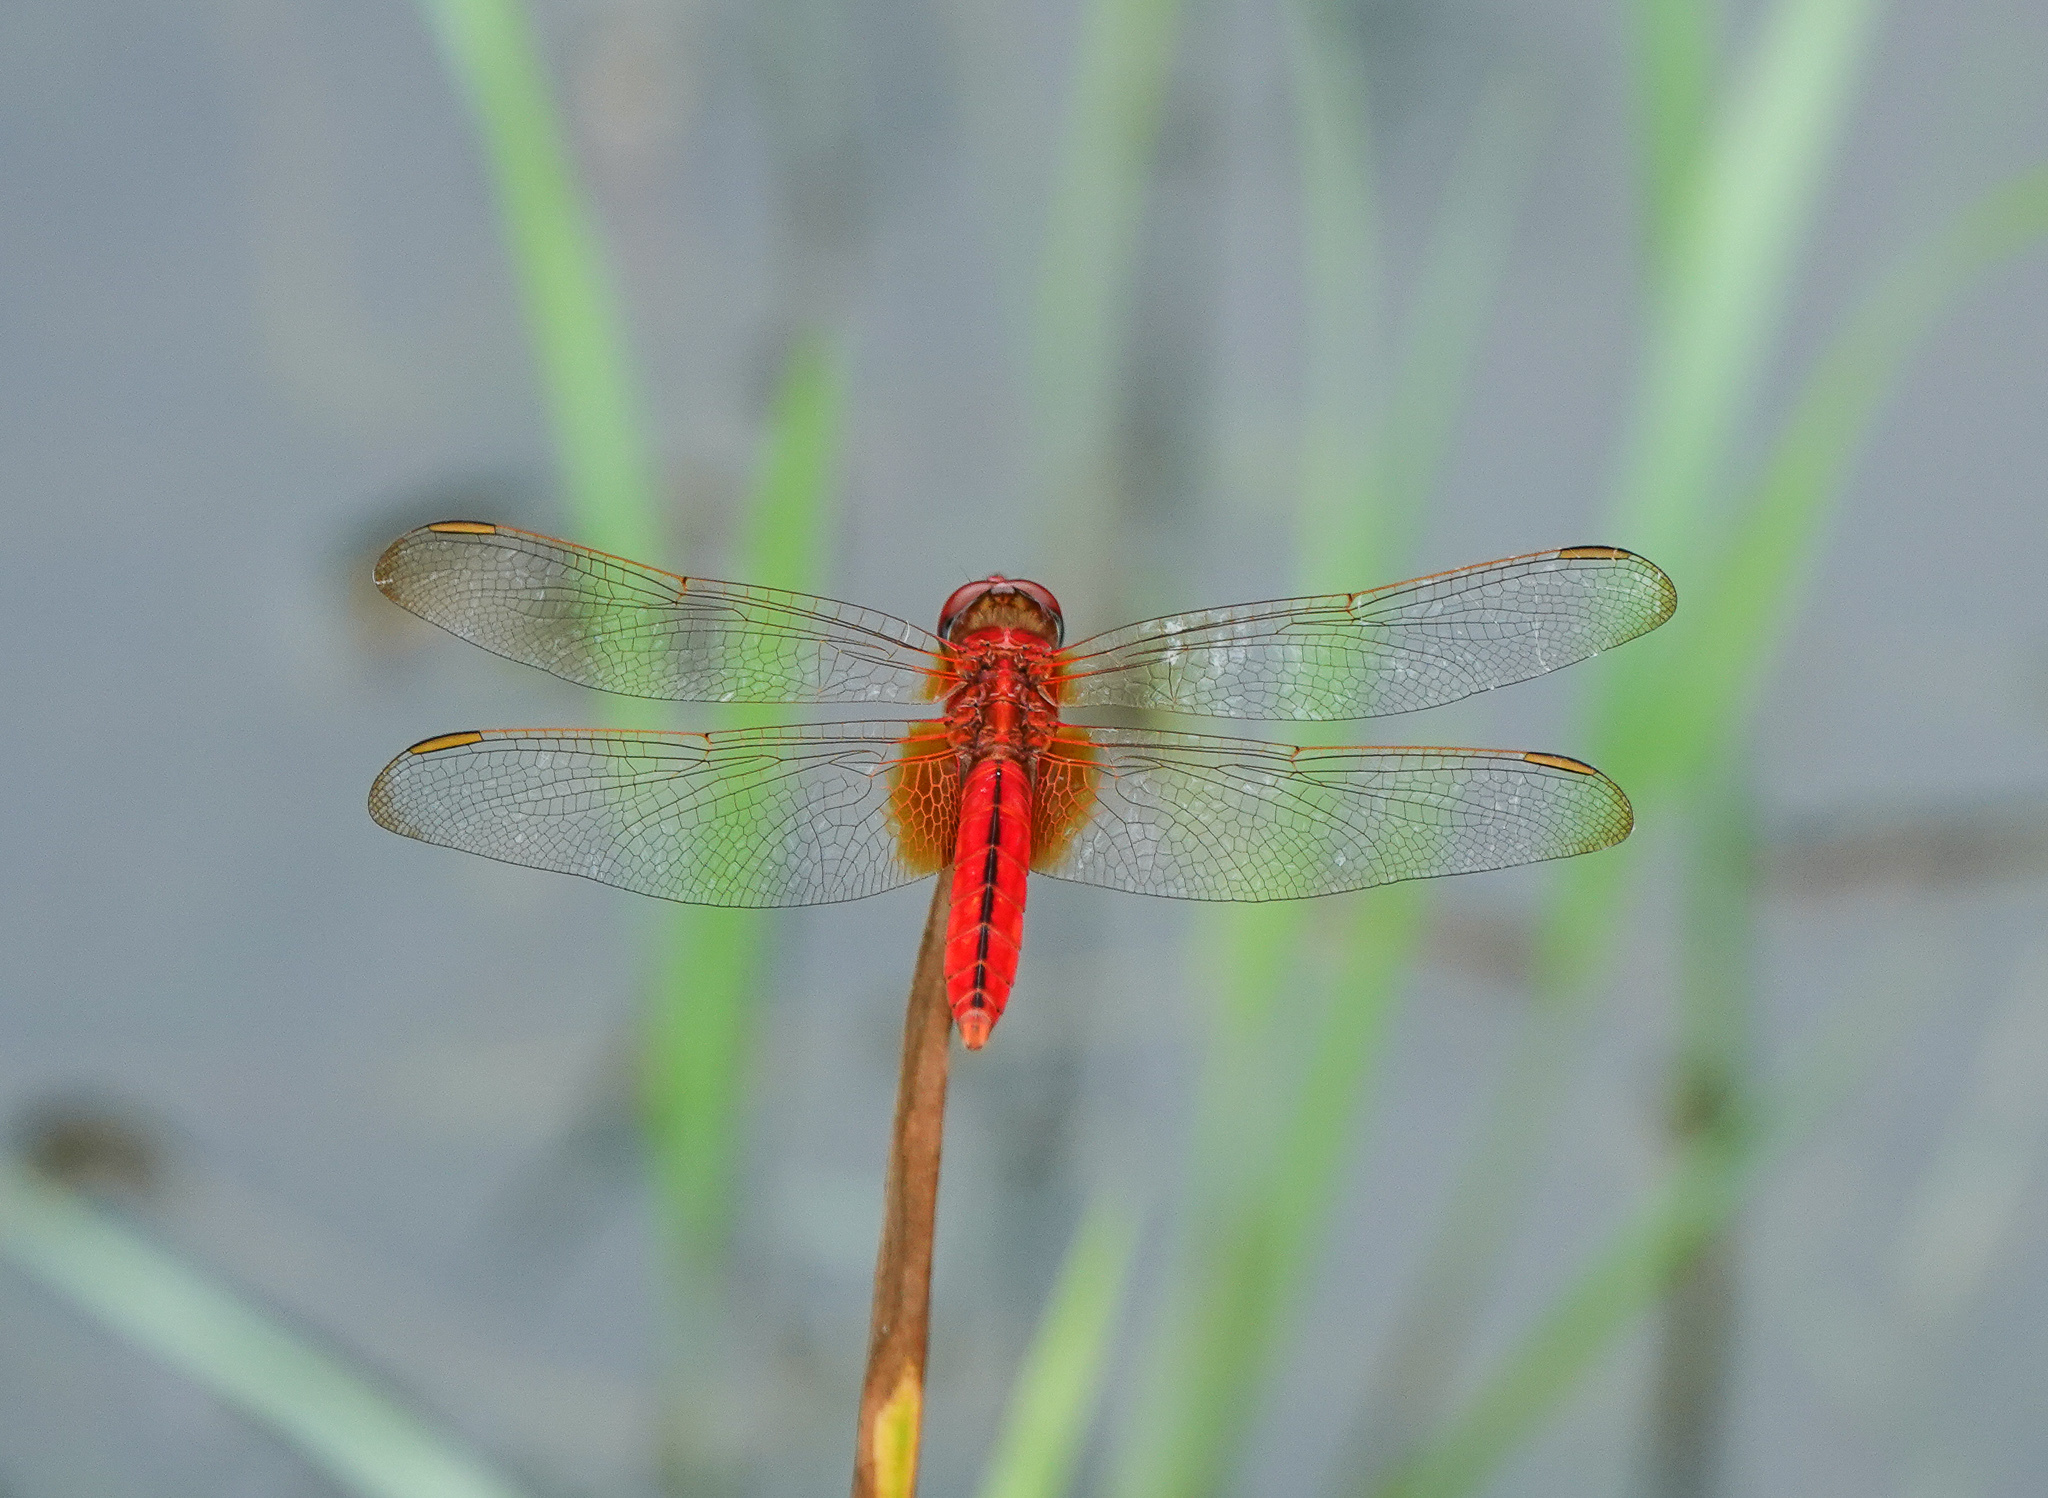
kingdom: Animalia
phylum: Arthropoda
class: Insecta
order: Odonata
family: Libellulidae
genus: Crocothemis
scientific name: Crocothemis servilia
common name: Scarlet skimmer
